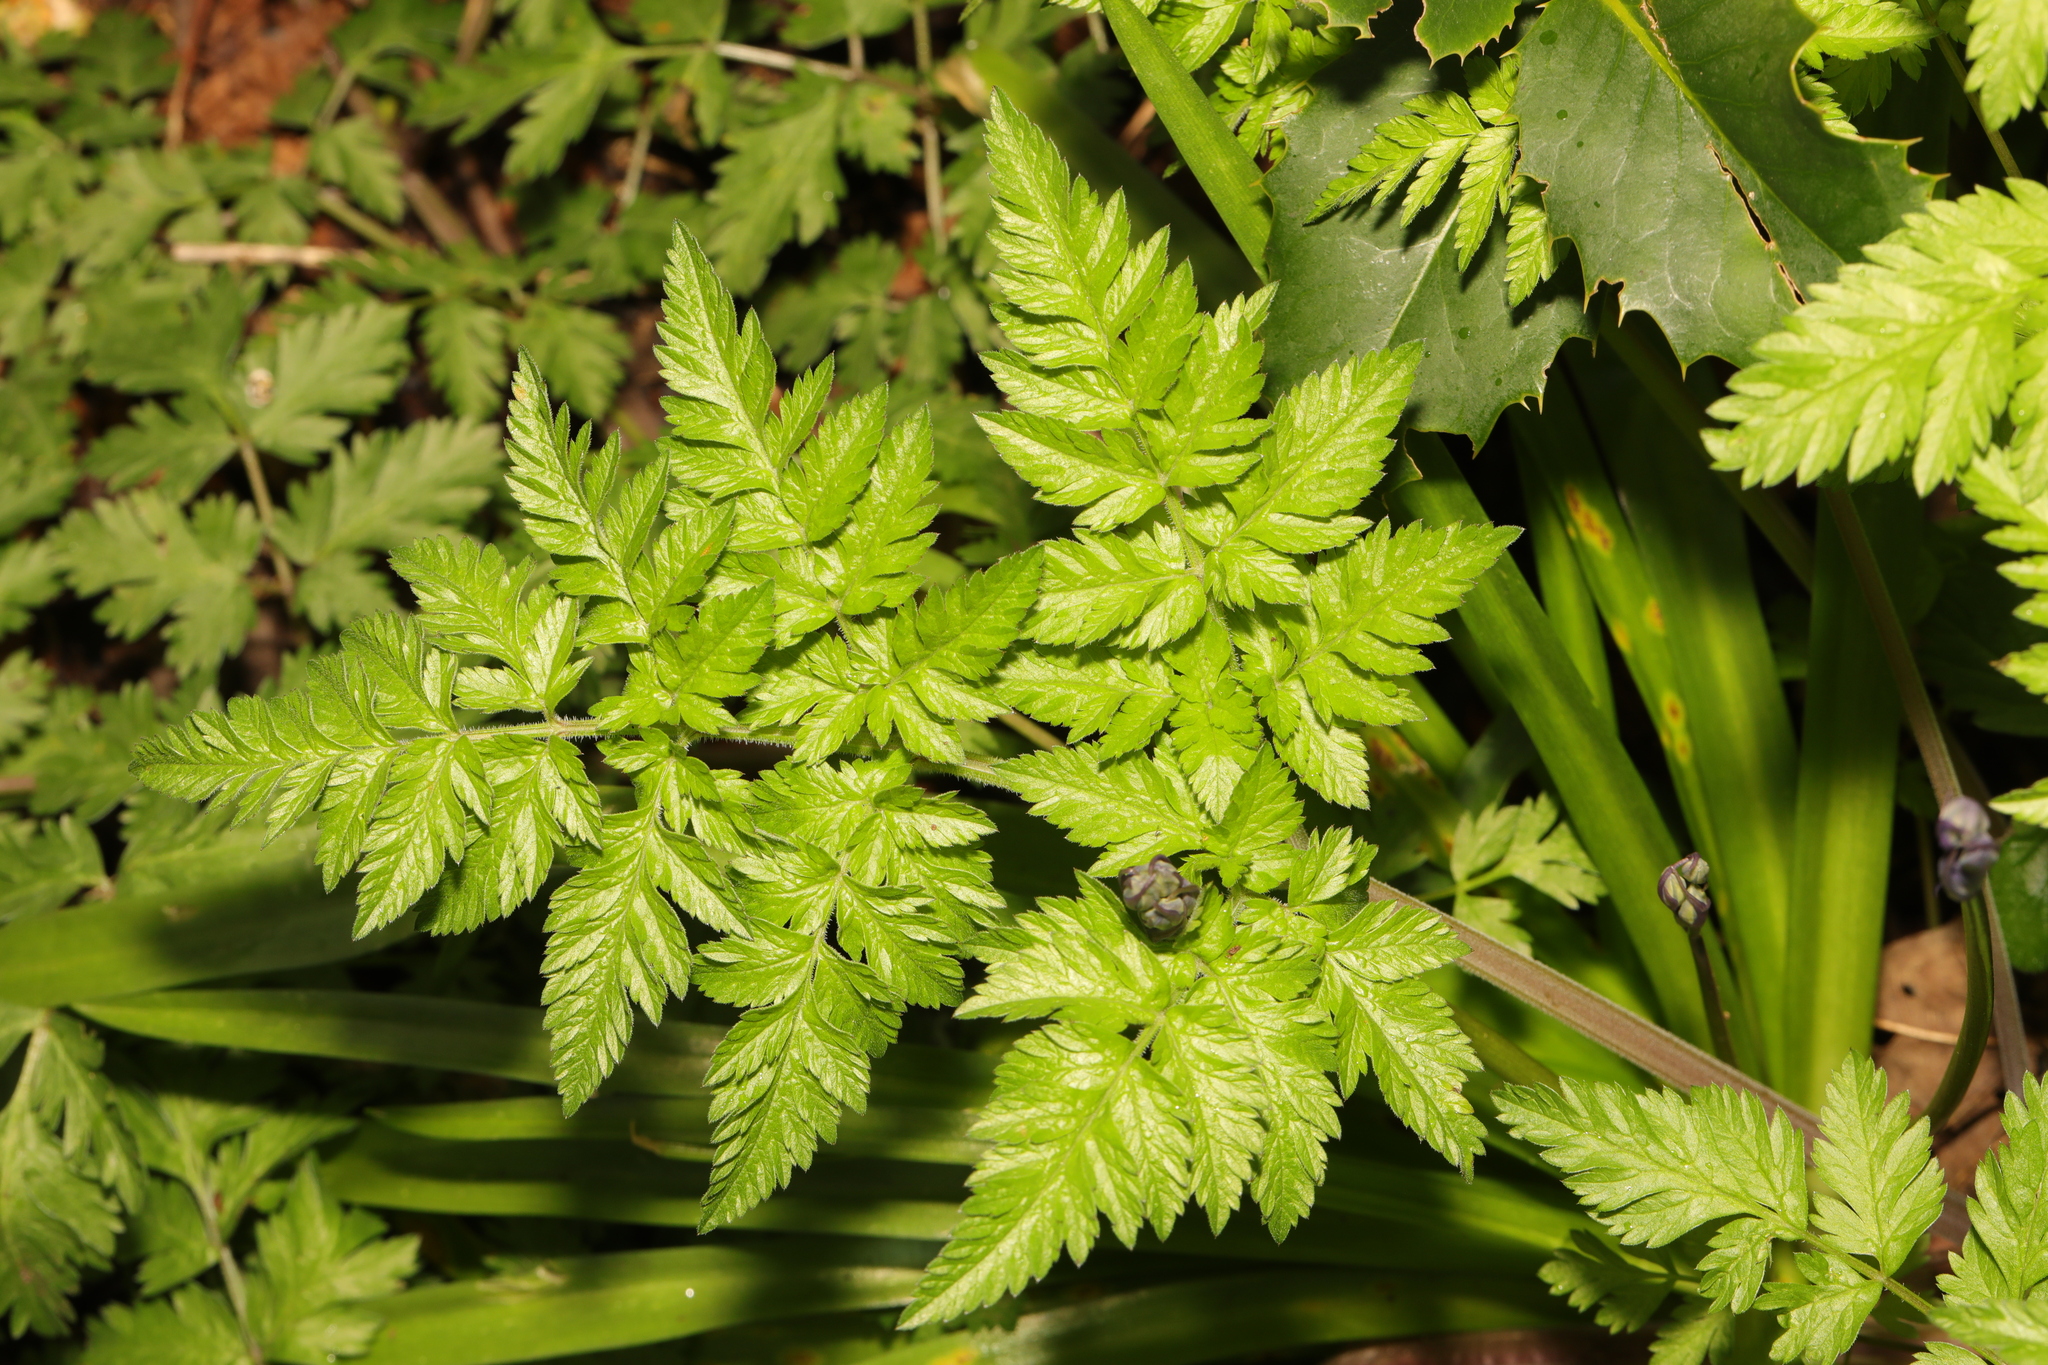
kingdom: Plantae
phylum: Tracheophyta
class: Magnoliopsida
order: Apiales
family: Apiaceae
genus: Anthriscus
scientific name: Anthriscus sylvestris
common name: Cow parsley
